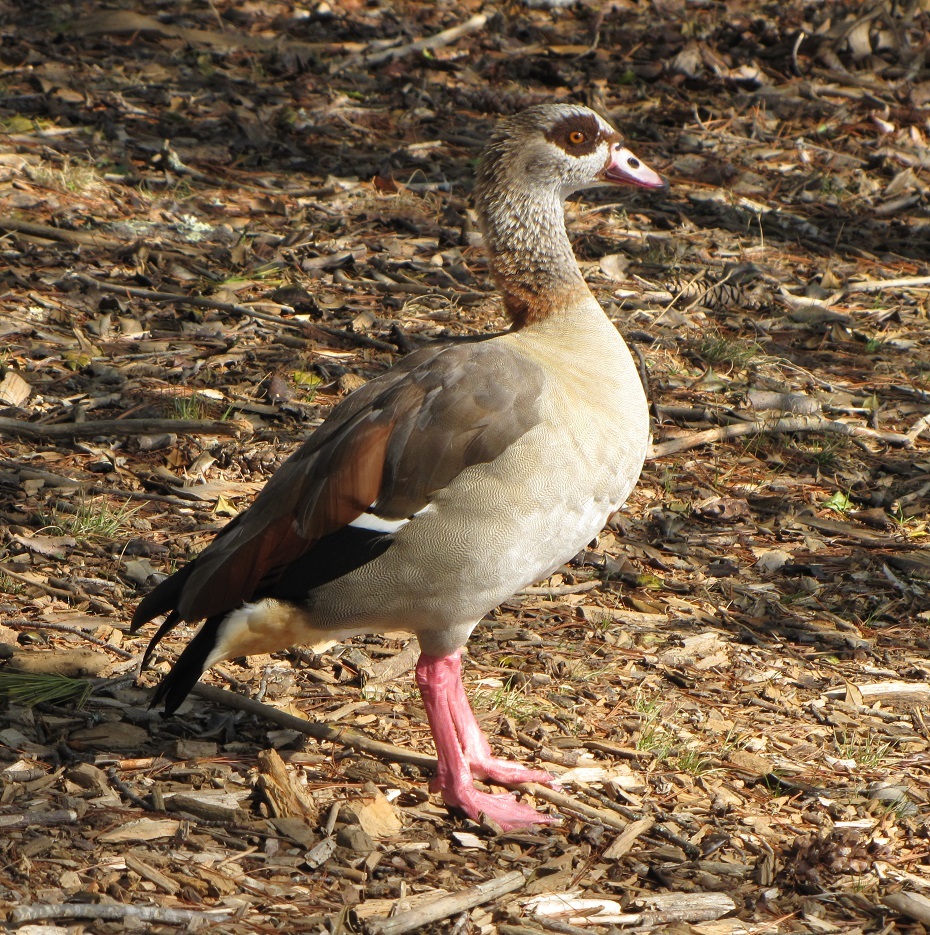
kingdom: Animalia
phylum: Chordata
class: Aves
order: Anseriformes
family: Anatidae
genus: Alopochen
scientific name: Alopochen aegyptiaca
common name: Egyptian goose
